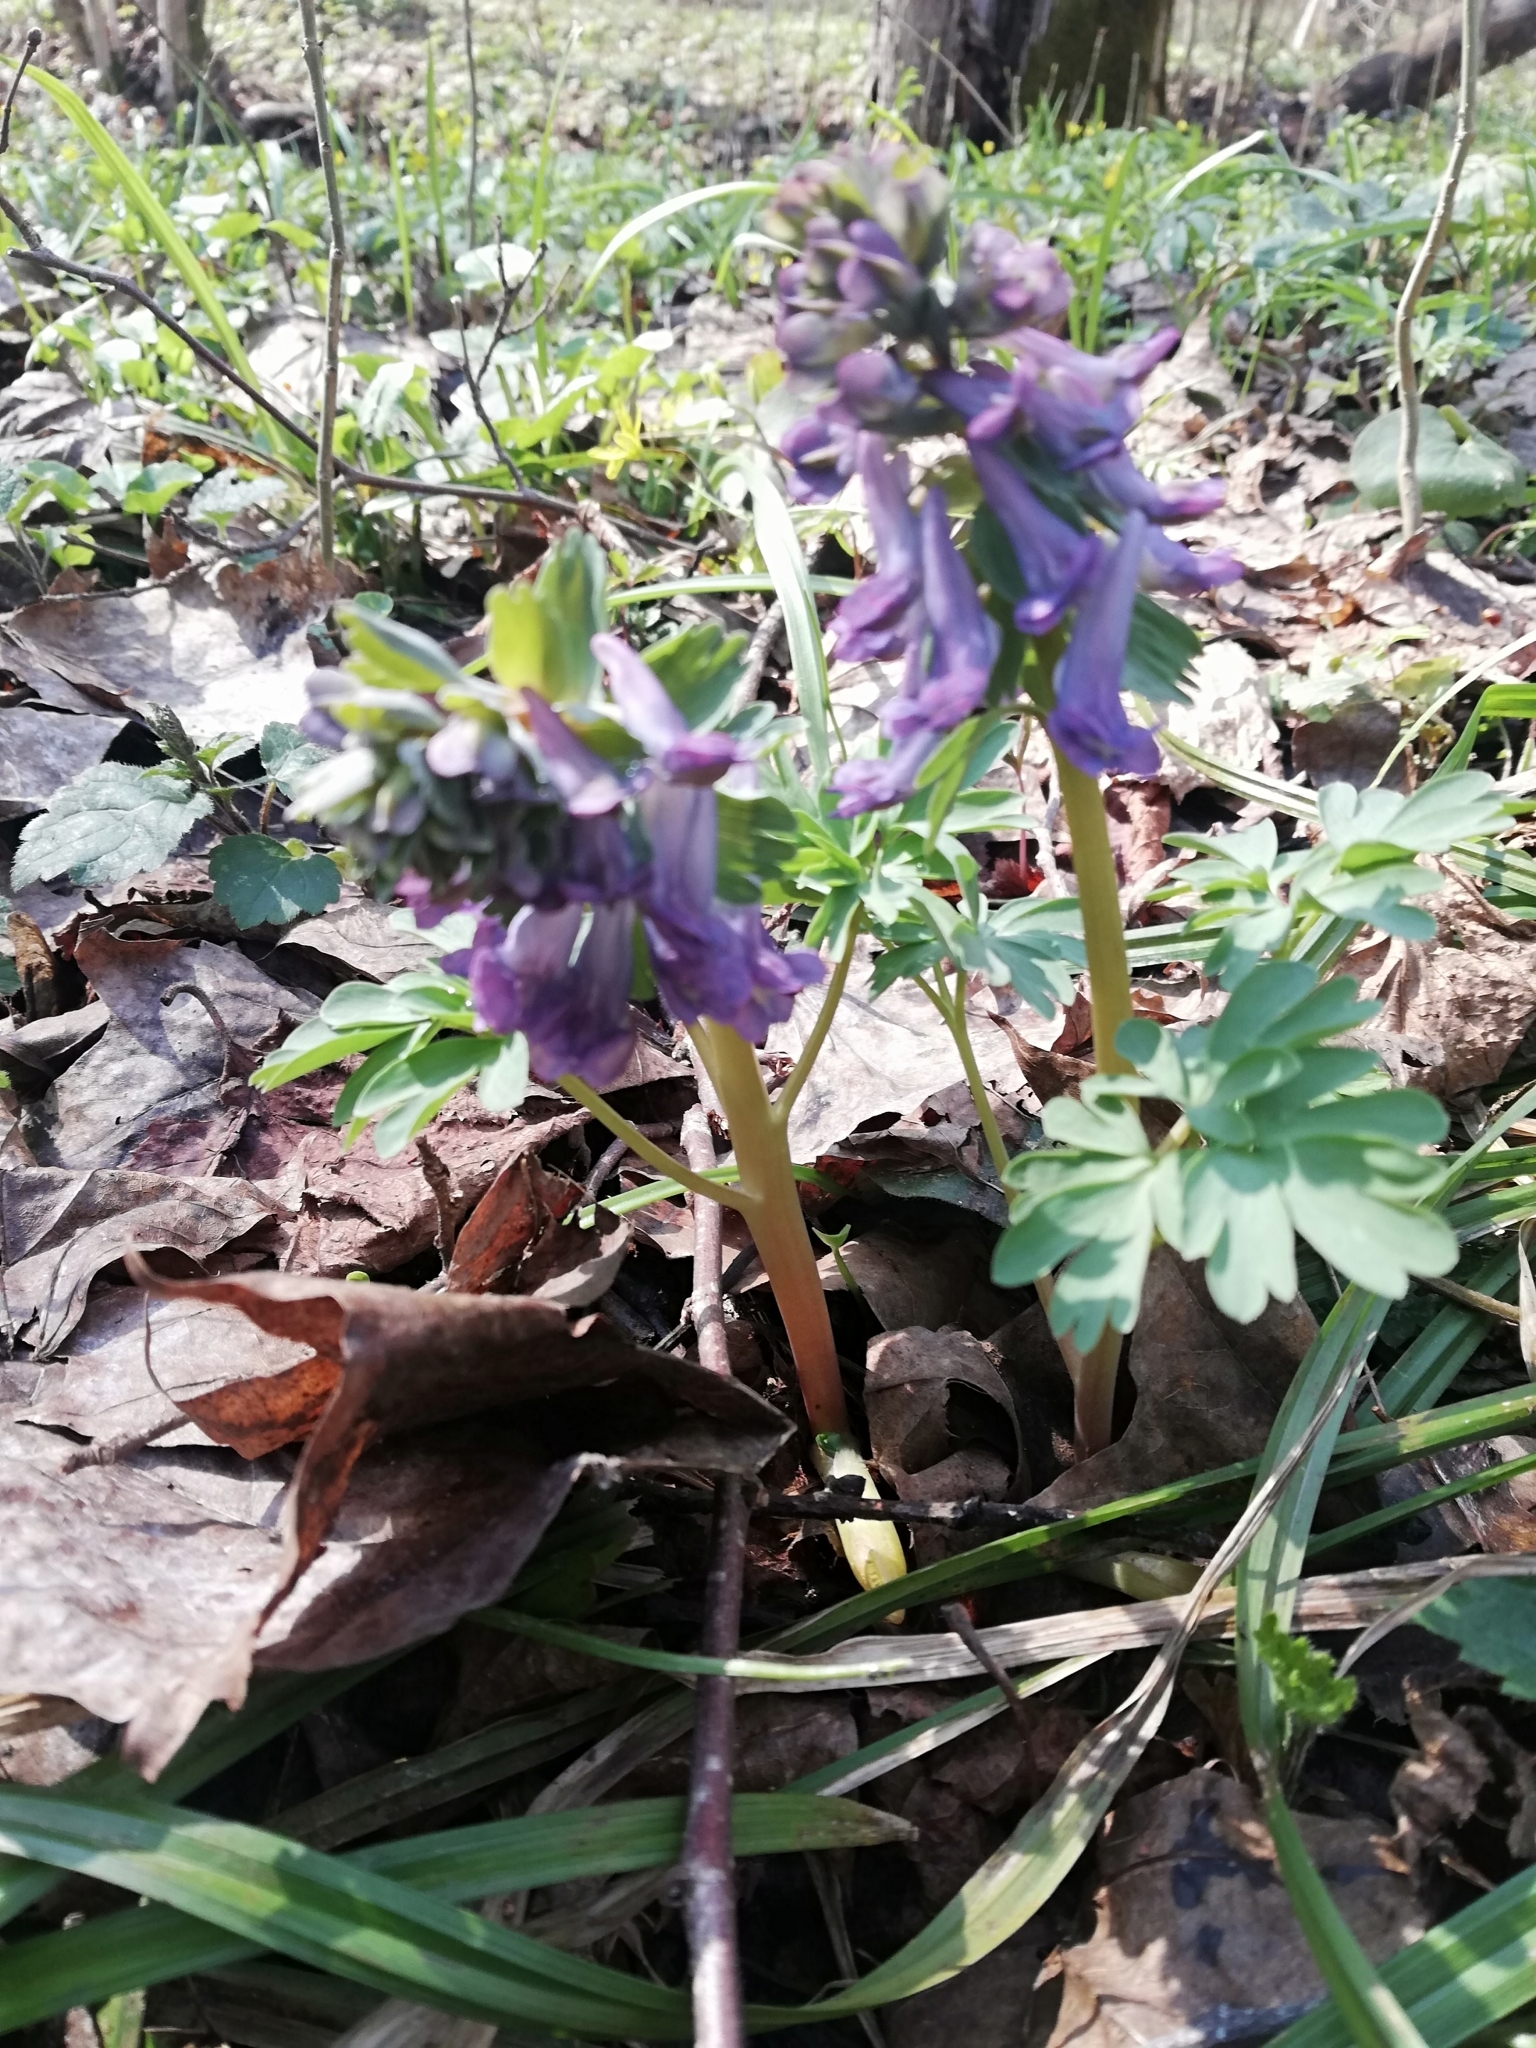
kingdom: Plantae
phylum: Tracheophyta
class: Magnoliopsida
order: Ranunculales
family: Papaveraceae
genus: Corydalis
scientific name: Corydalis solida
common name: Bird-in-a-bush
